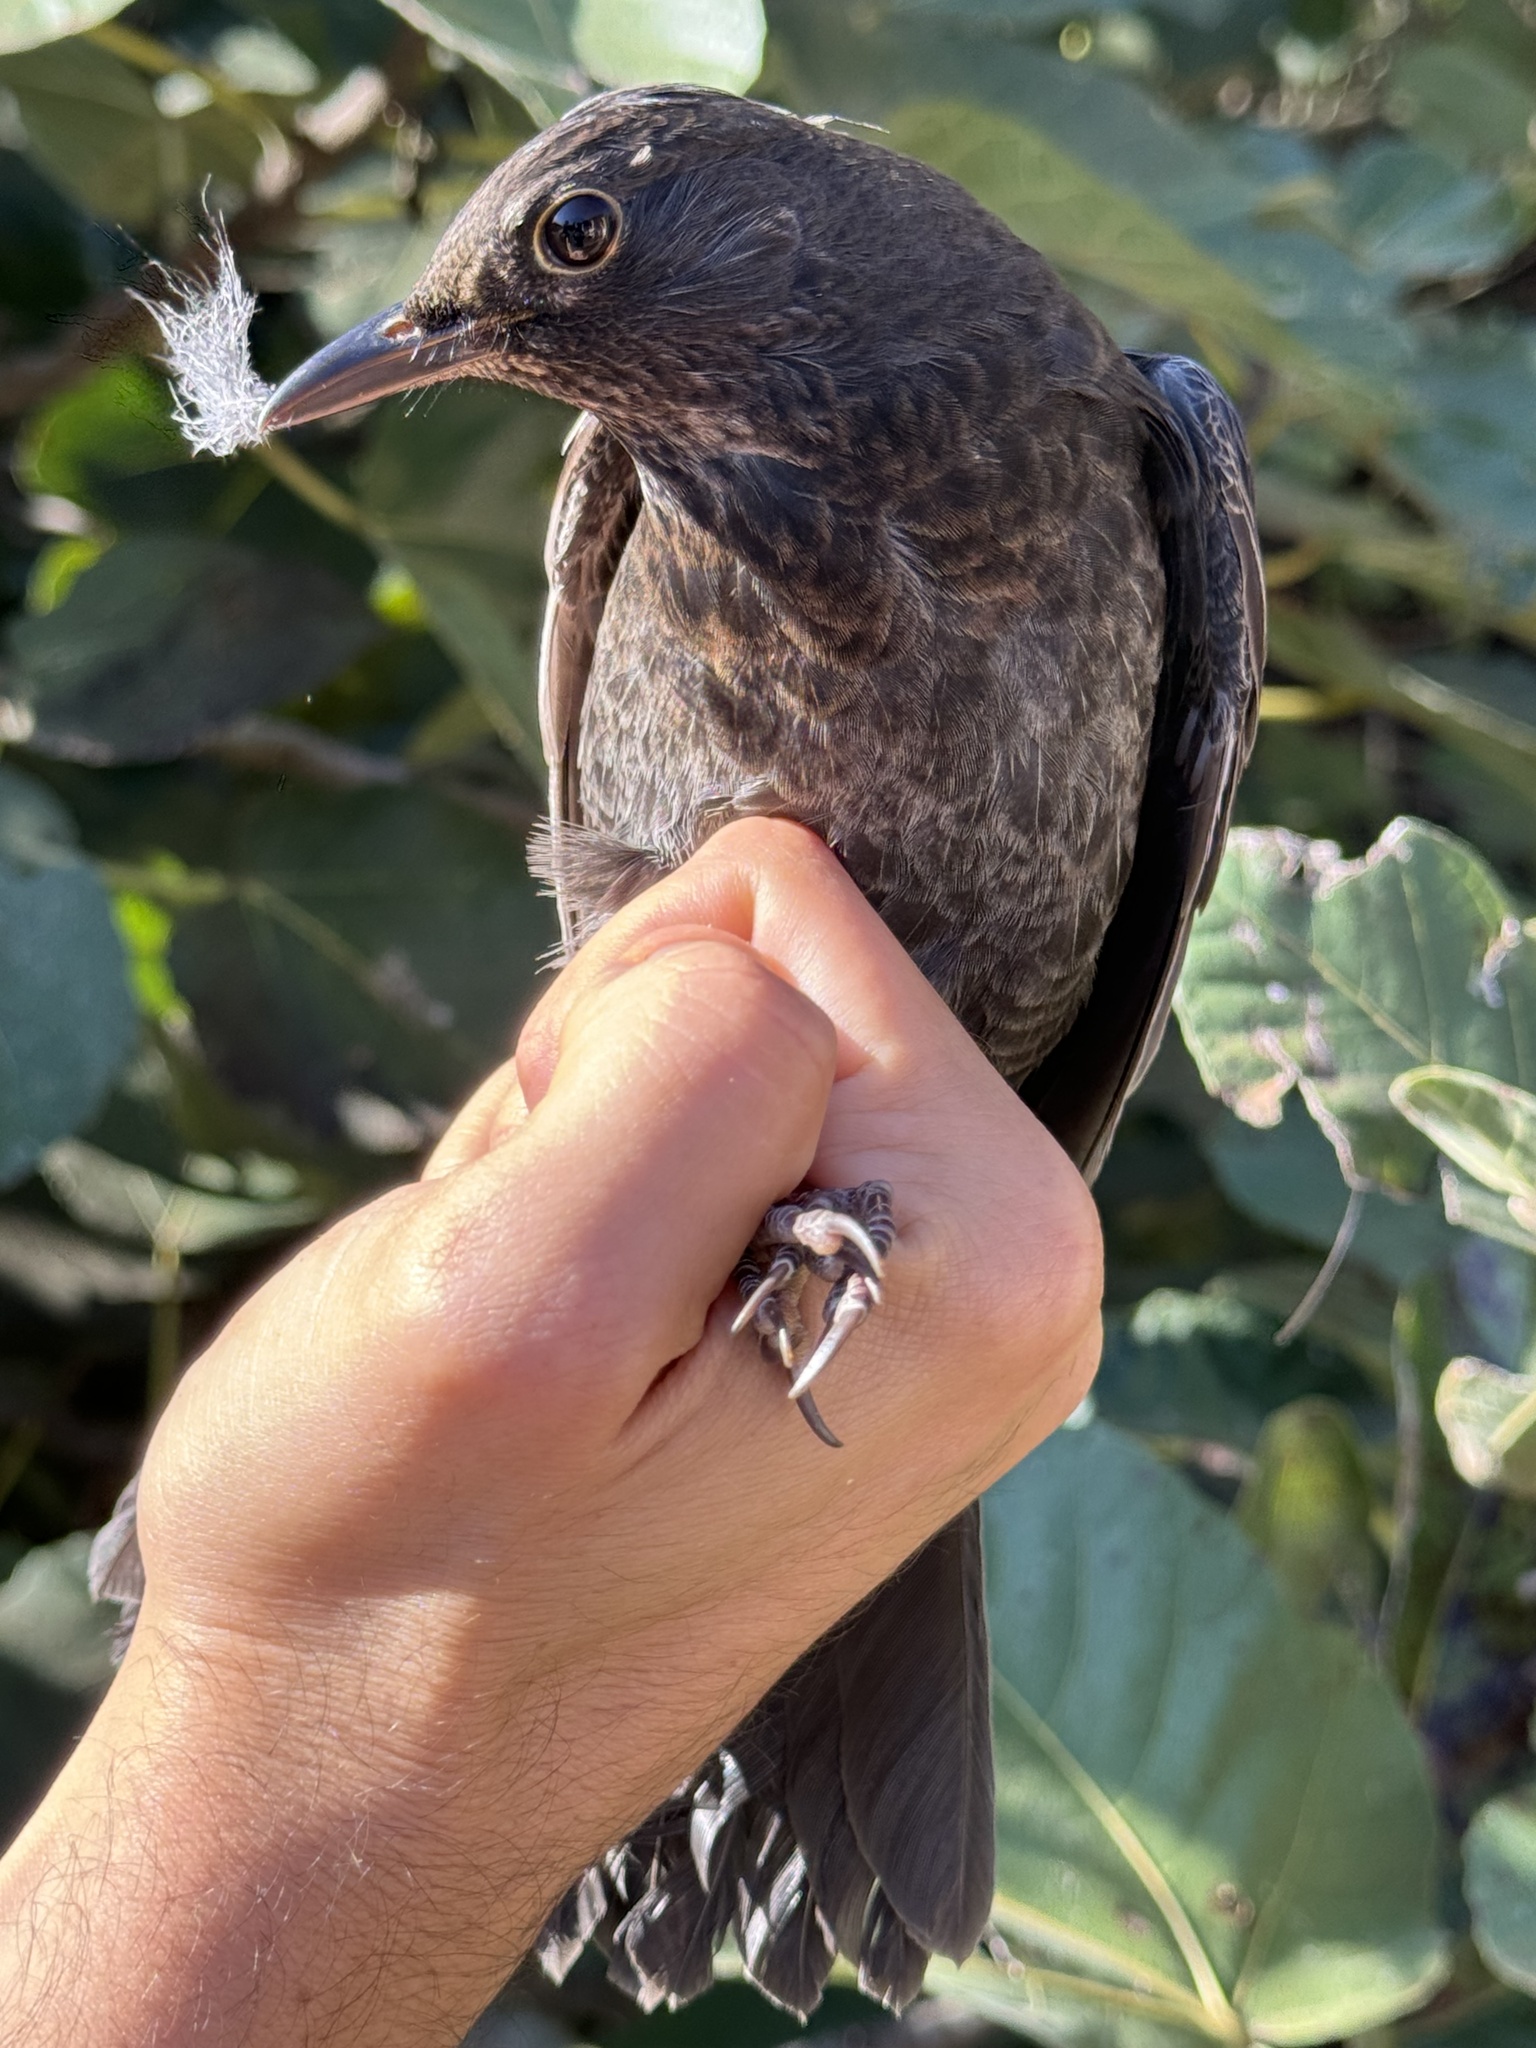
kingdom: Animalia
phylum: Chordata
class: Aves
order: Passeriformes
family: Turdidae
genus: Turdus
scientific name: Turdus merula
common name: Common blackbird
